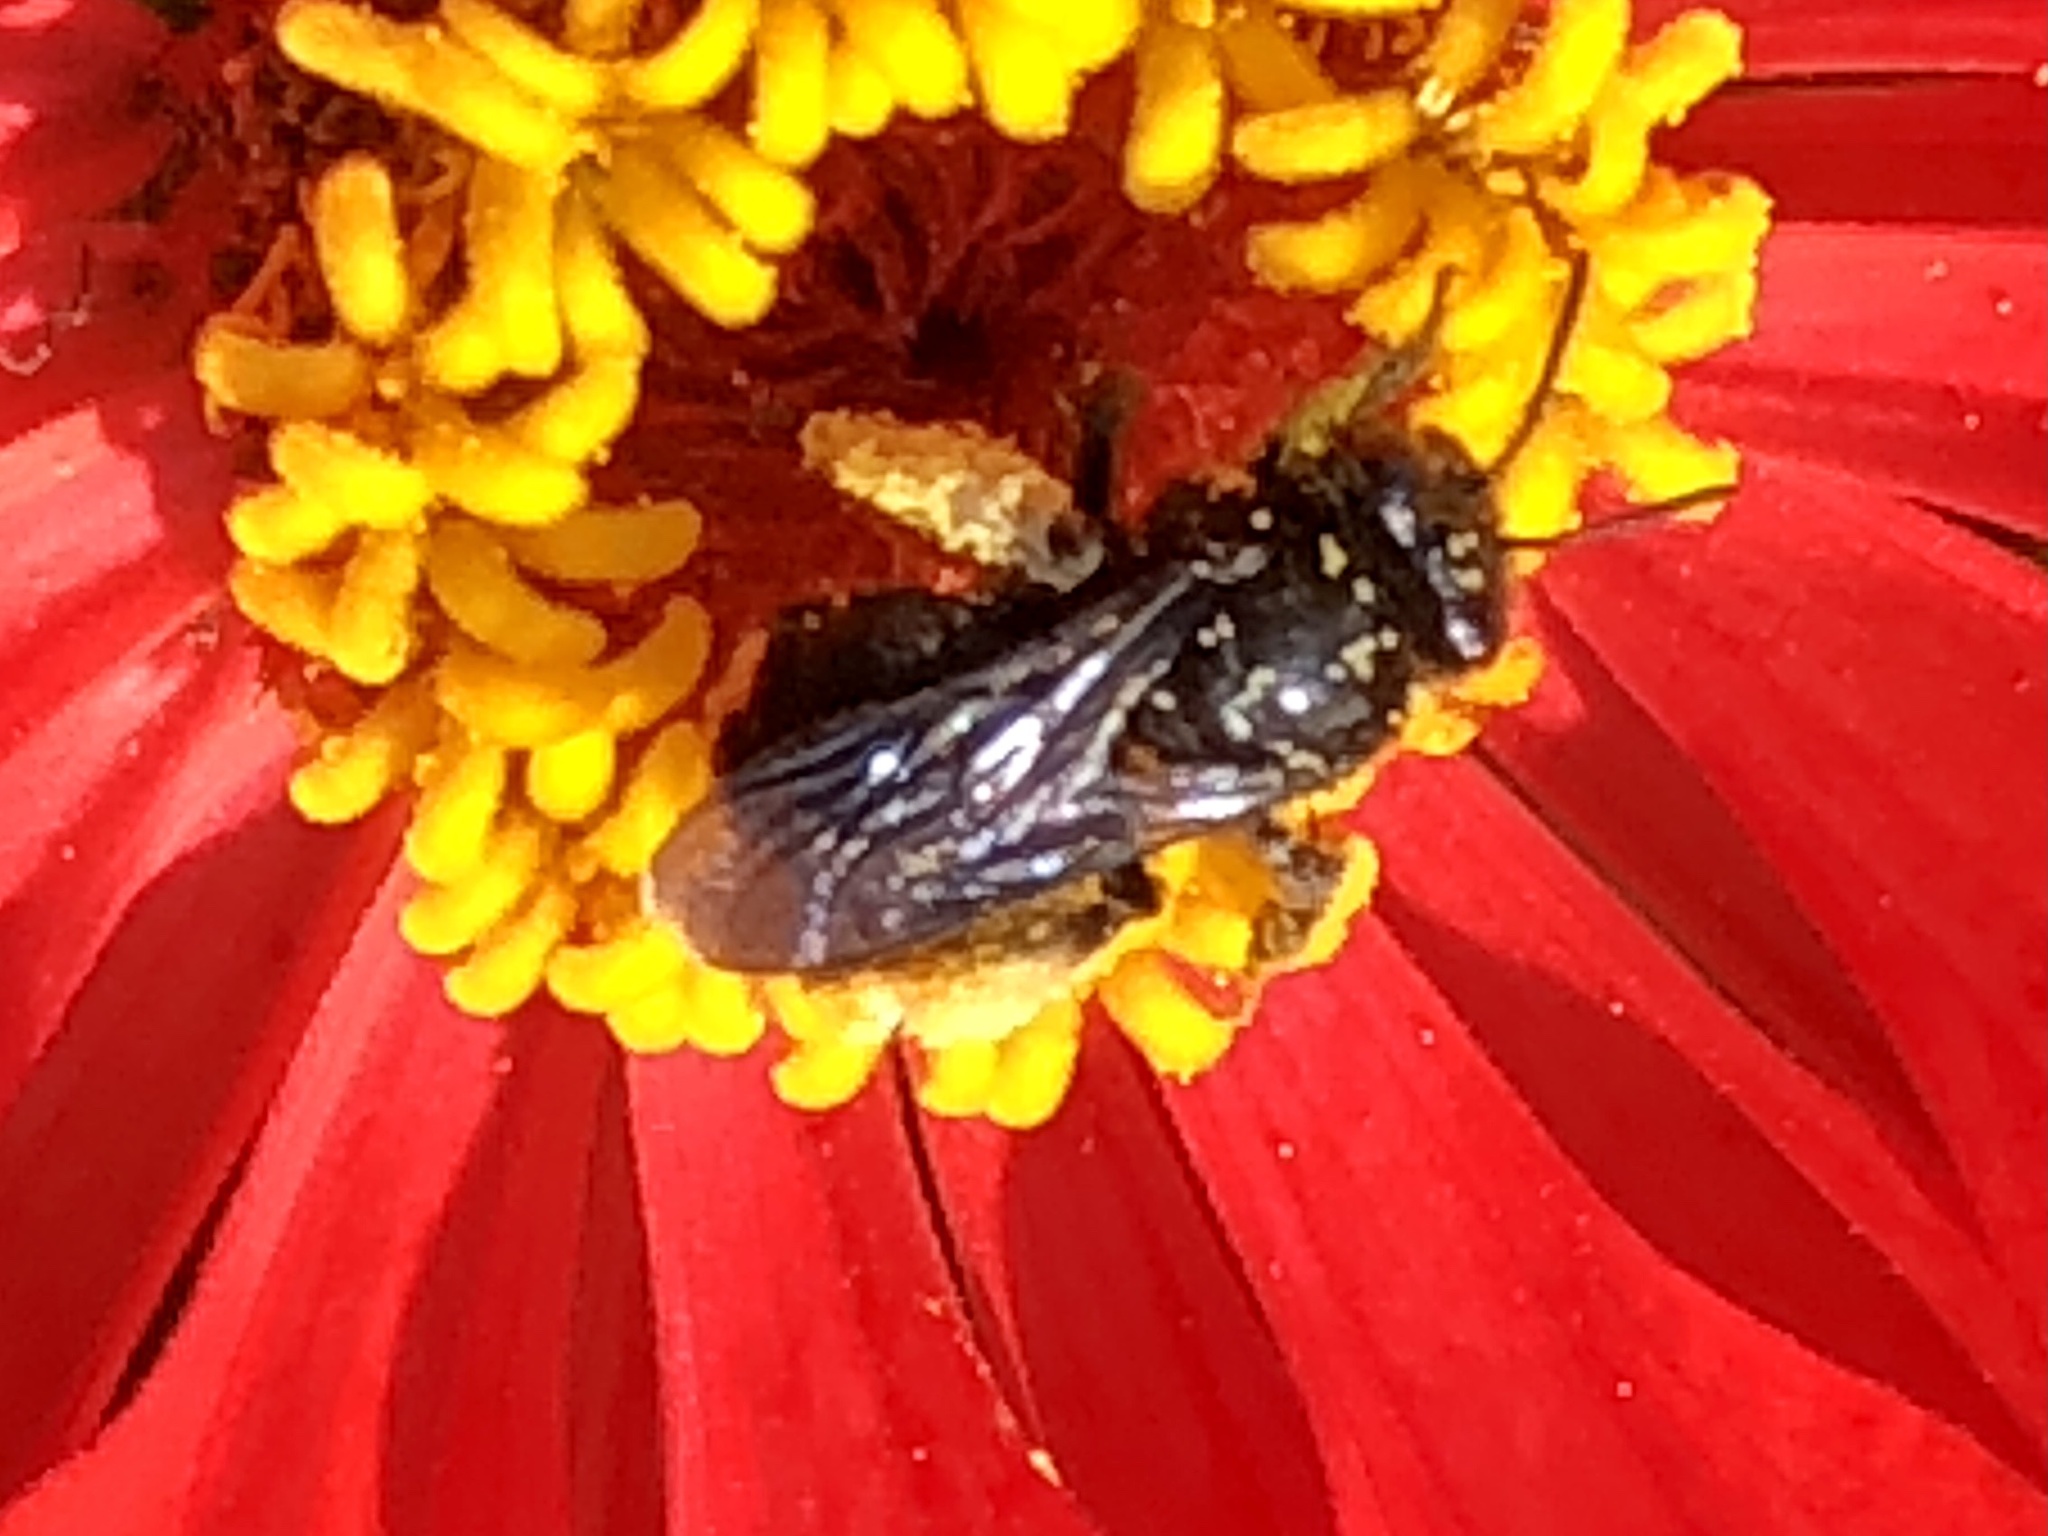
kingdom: Animalia
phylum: Arthropoda
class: Insecta
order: Hymenoptera
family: Apidae
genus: Melissodes
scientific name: Melissodes bimaculatus
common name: Two-spotted long-horned bee
